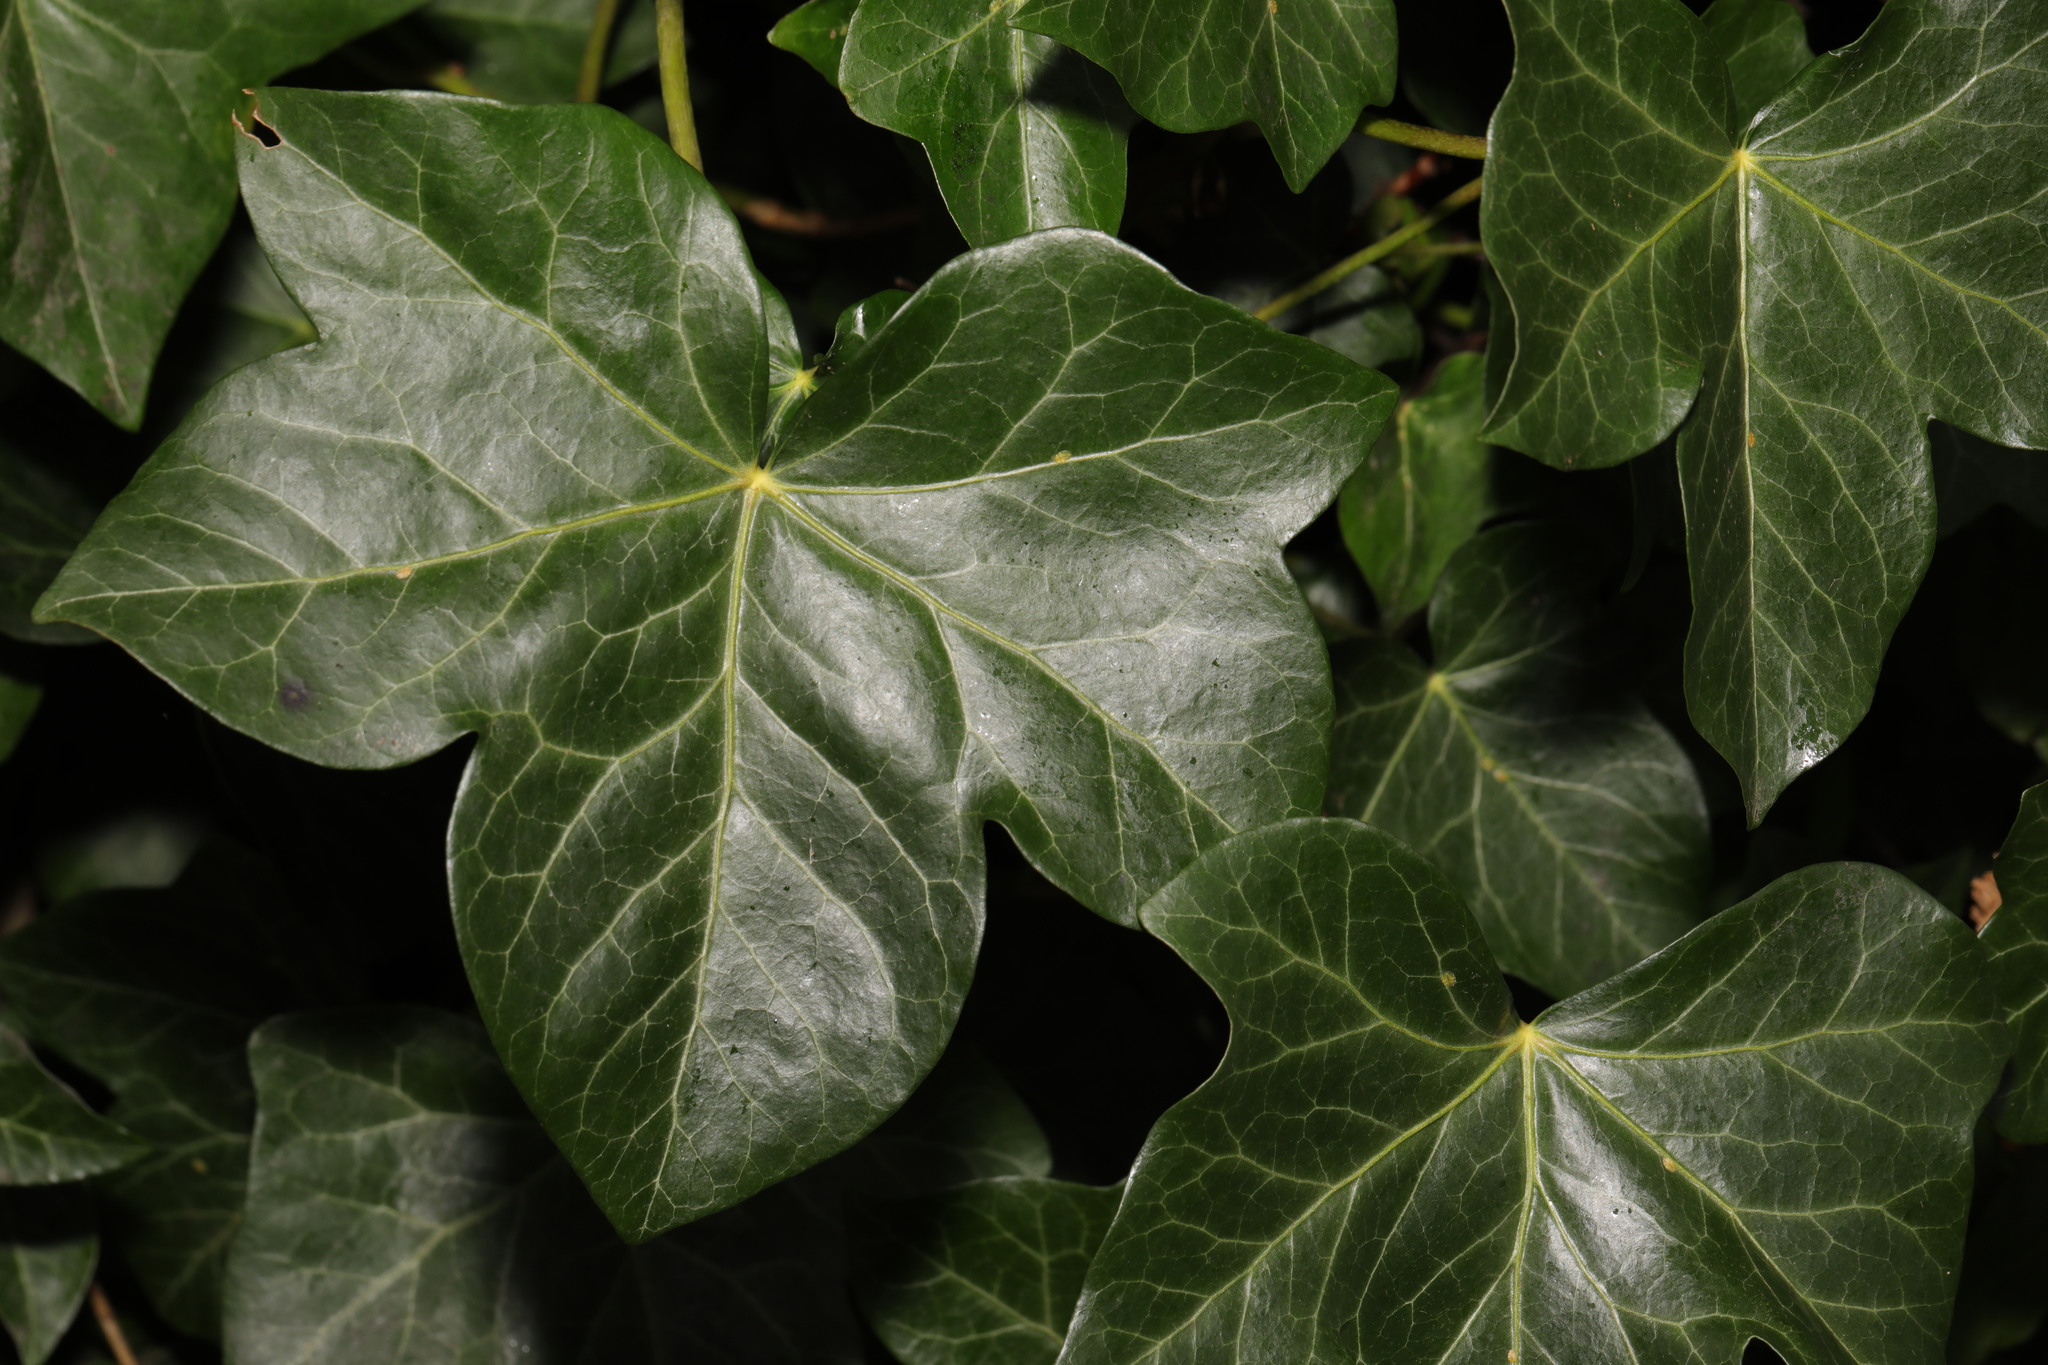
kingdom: Plantae
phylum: Tracheophyta
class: Magnoliopsida
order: Apiales
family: Araliaceae
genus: Hedera
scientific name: Hedera helix
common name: Ivy
